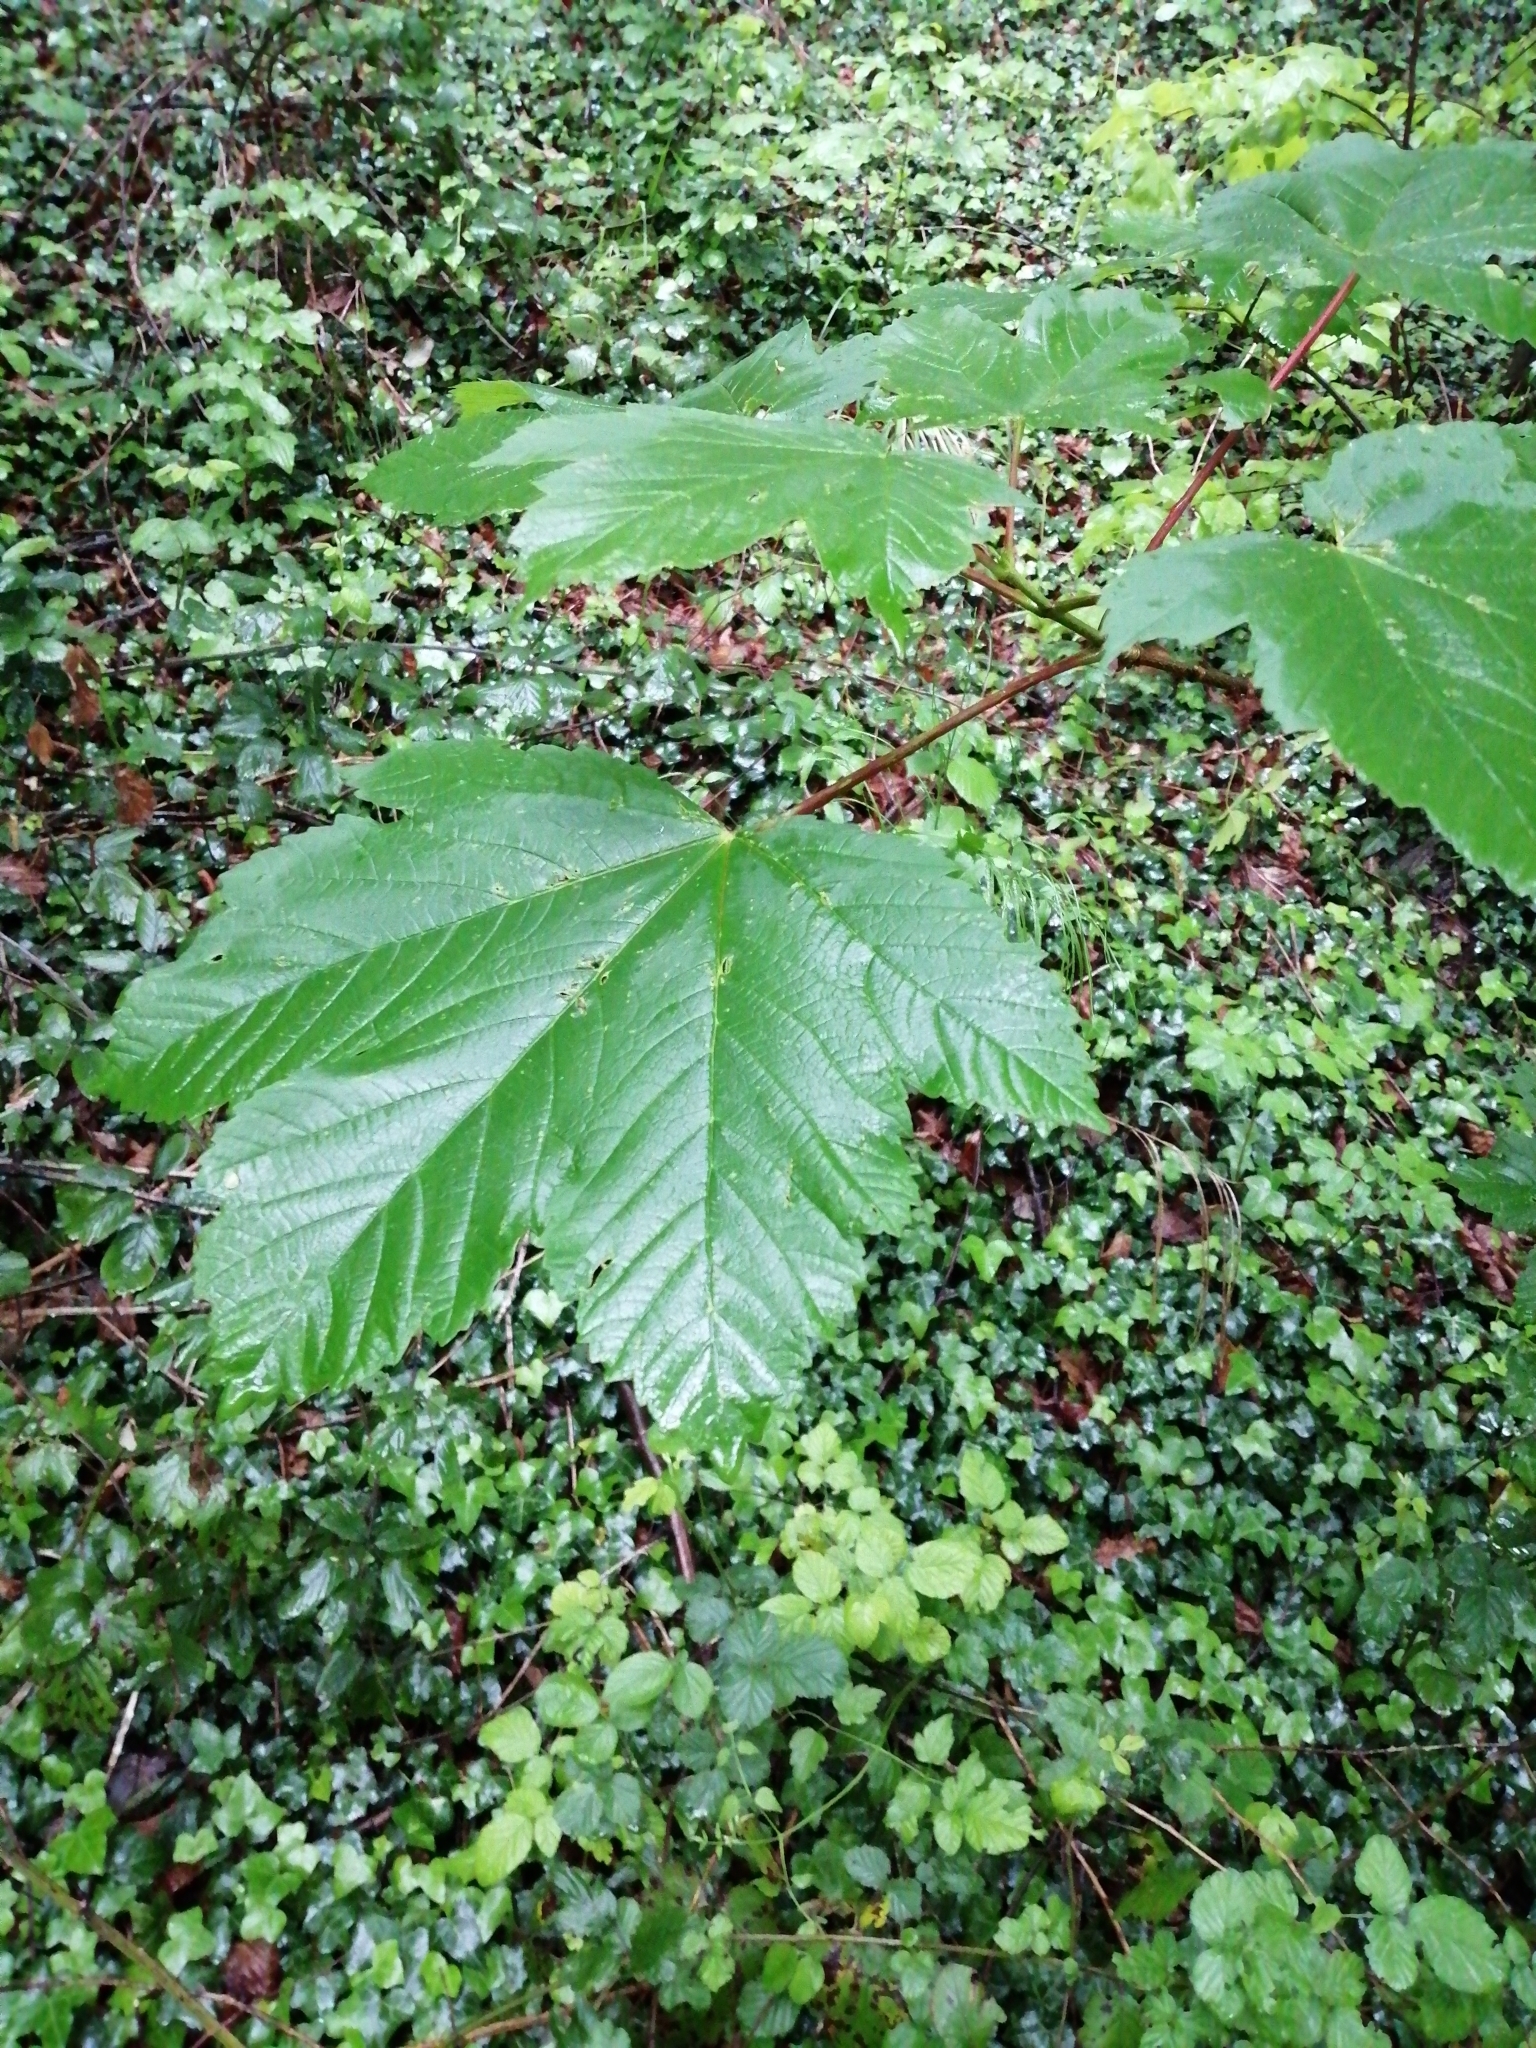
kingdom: Plantae
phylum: Tracheophyta
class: Magnoliopsida
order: Sapindales
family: Sapindaceae
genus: Acer
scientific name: Acer pseudoplatanus
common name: Sycamore
